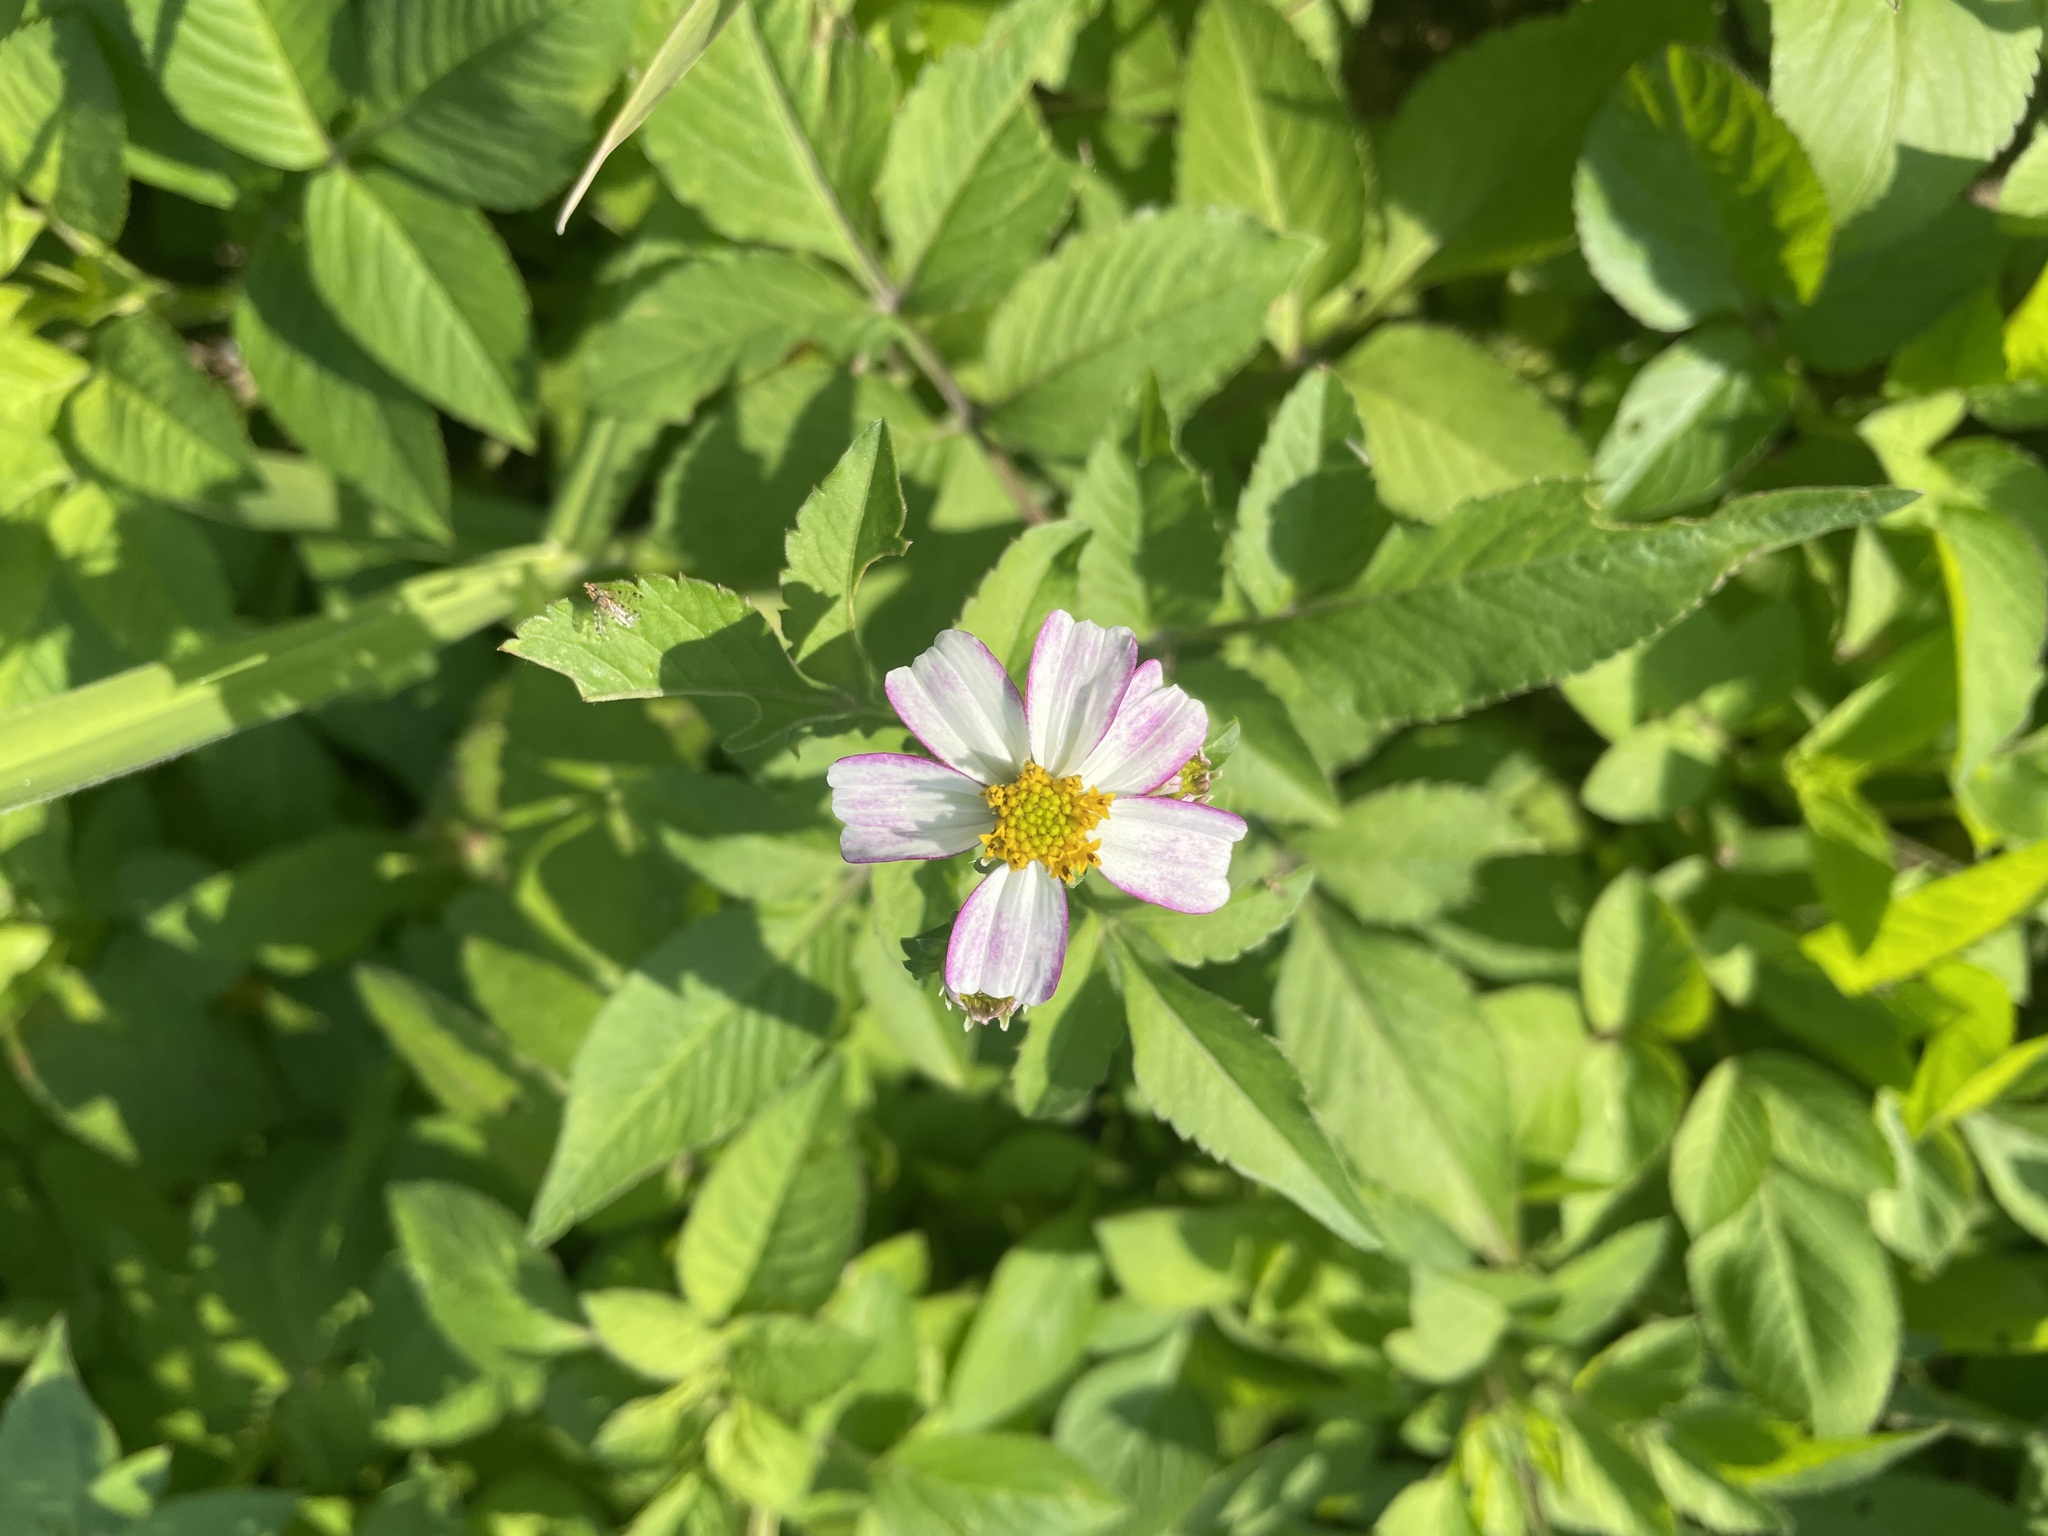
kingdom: Plantae
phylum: Tracheophyta
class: Magnoliopsida
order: Asterales
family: Asteraceae
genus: Bidens
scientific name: Bidens alba
